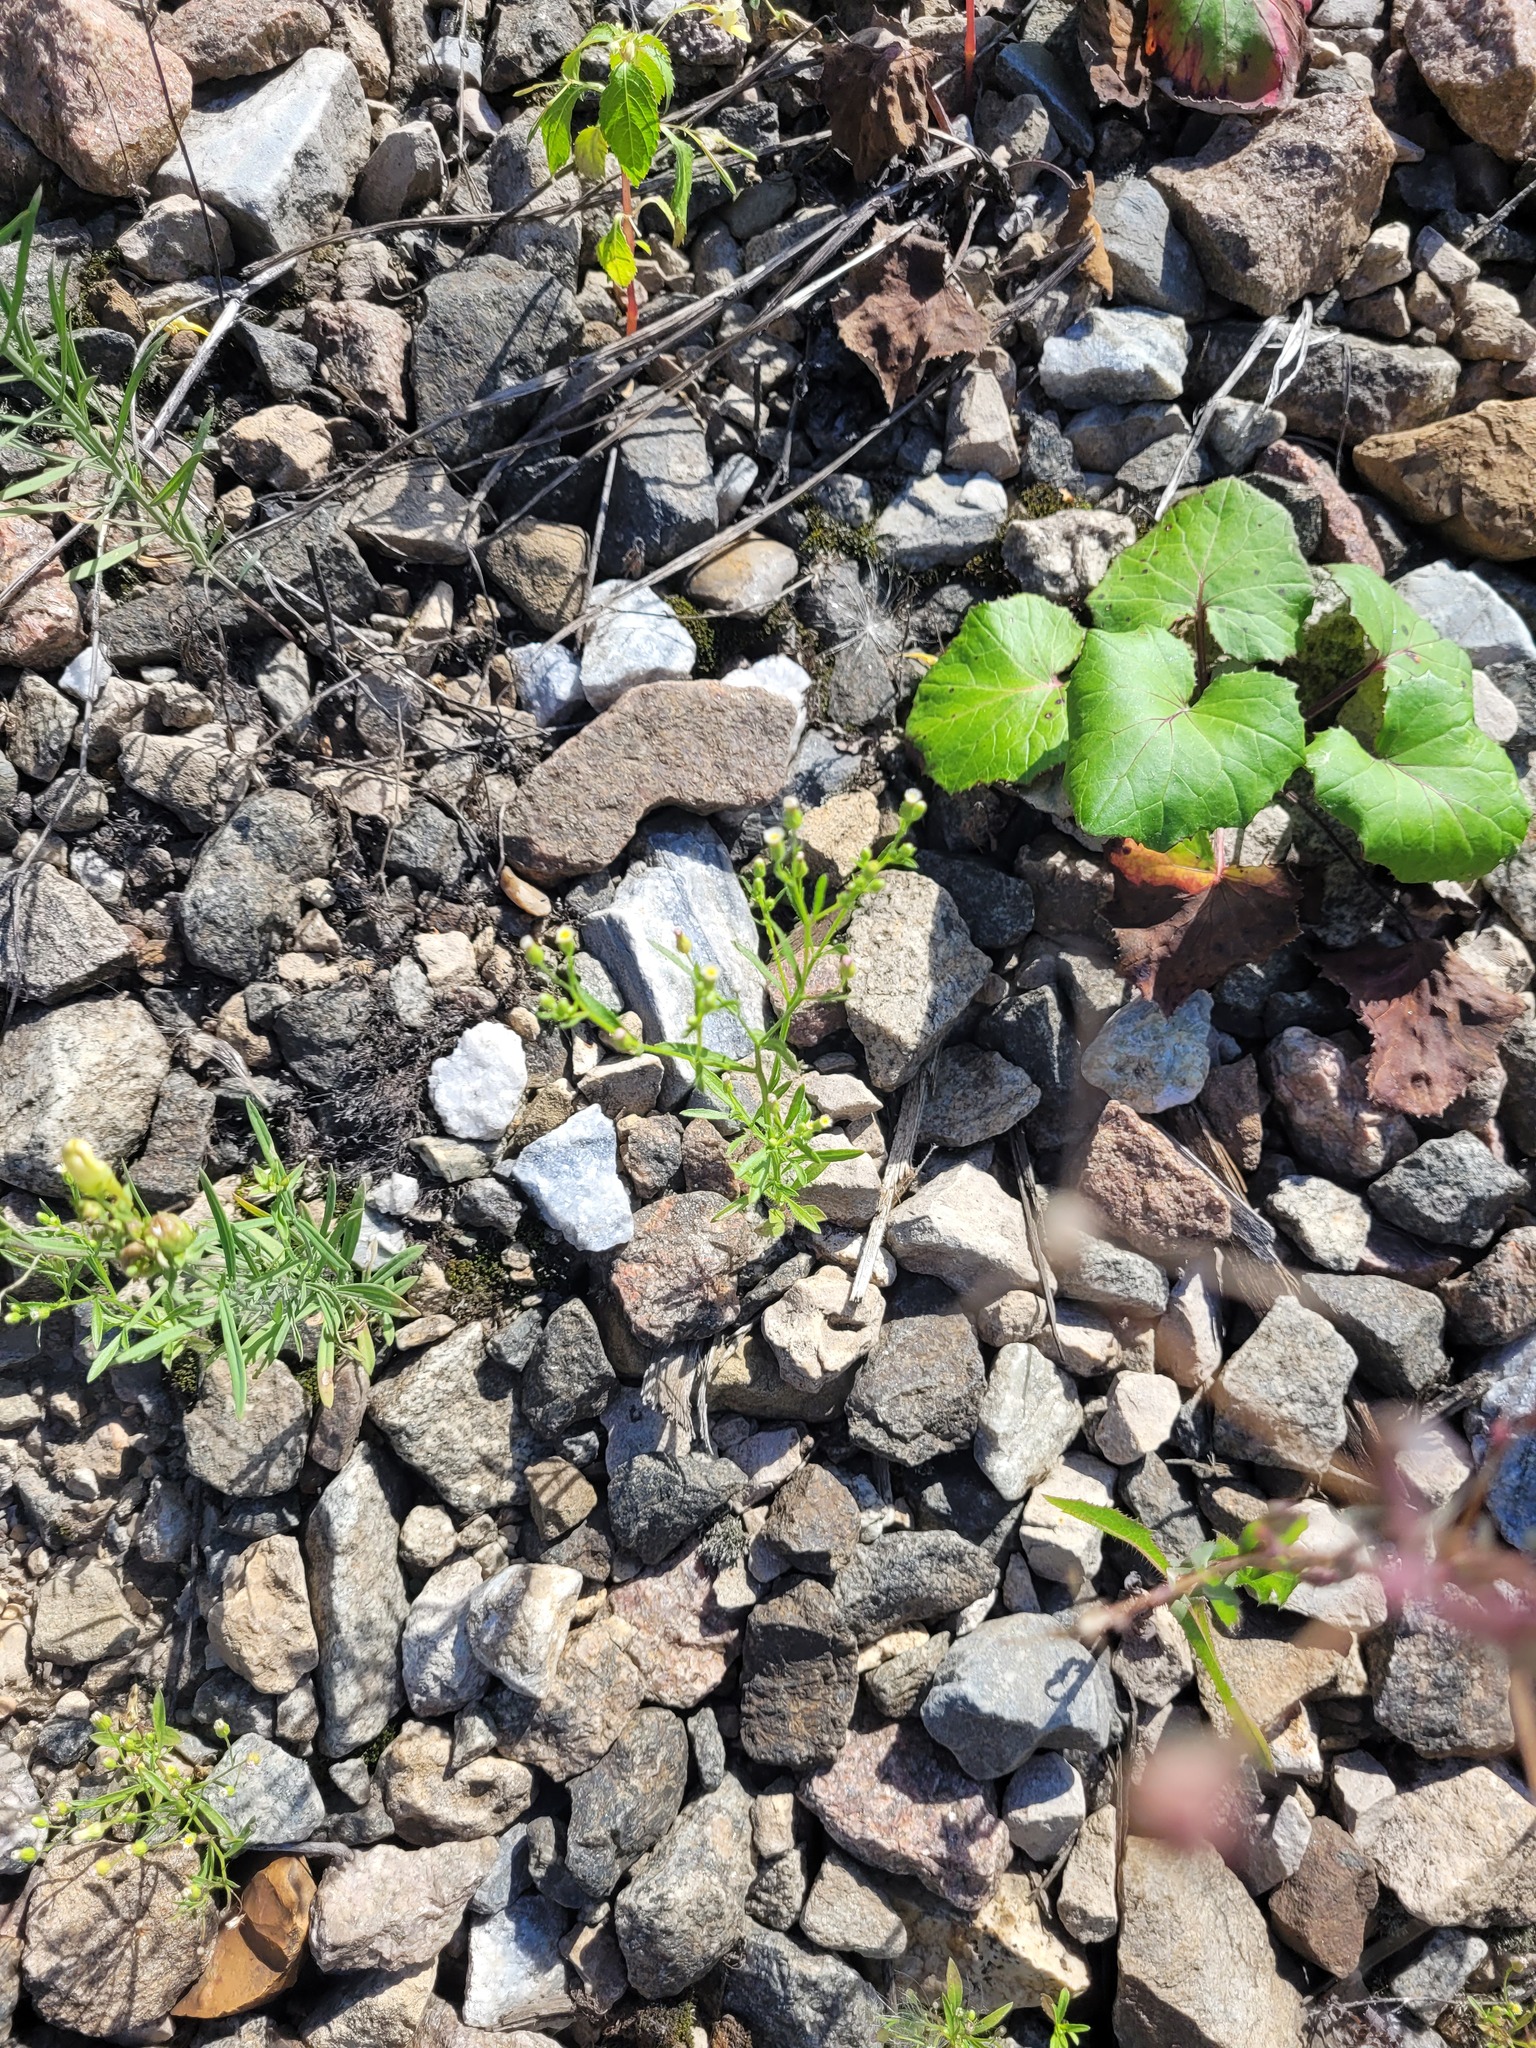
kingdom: Plantae
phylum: Tracheophyta
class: Magnoliopsida
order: Asterales
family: Asteraceae
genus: Erigeron
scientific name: Erigeron canadensis
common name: Canadian fleabane
